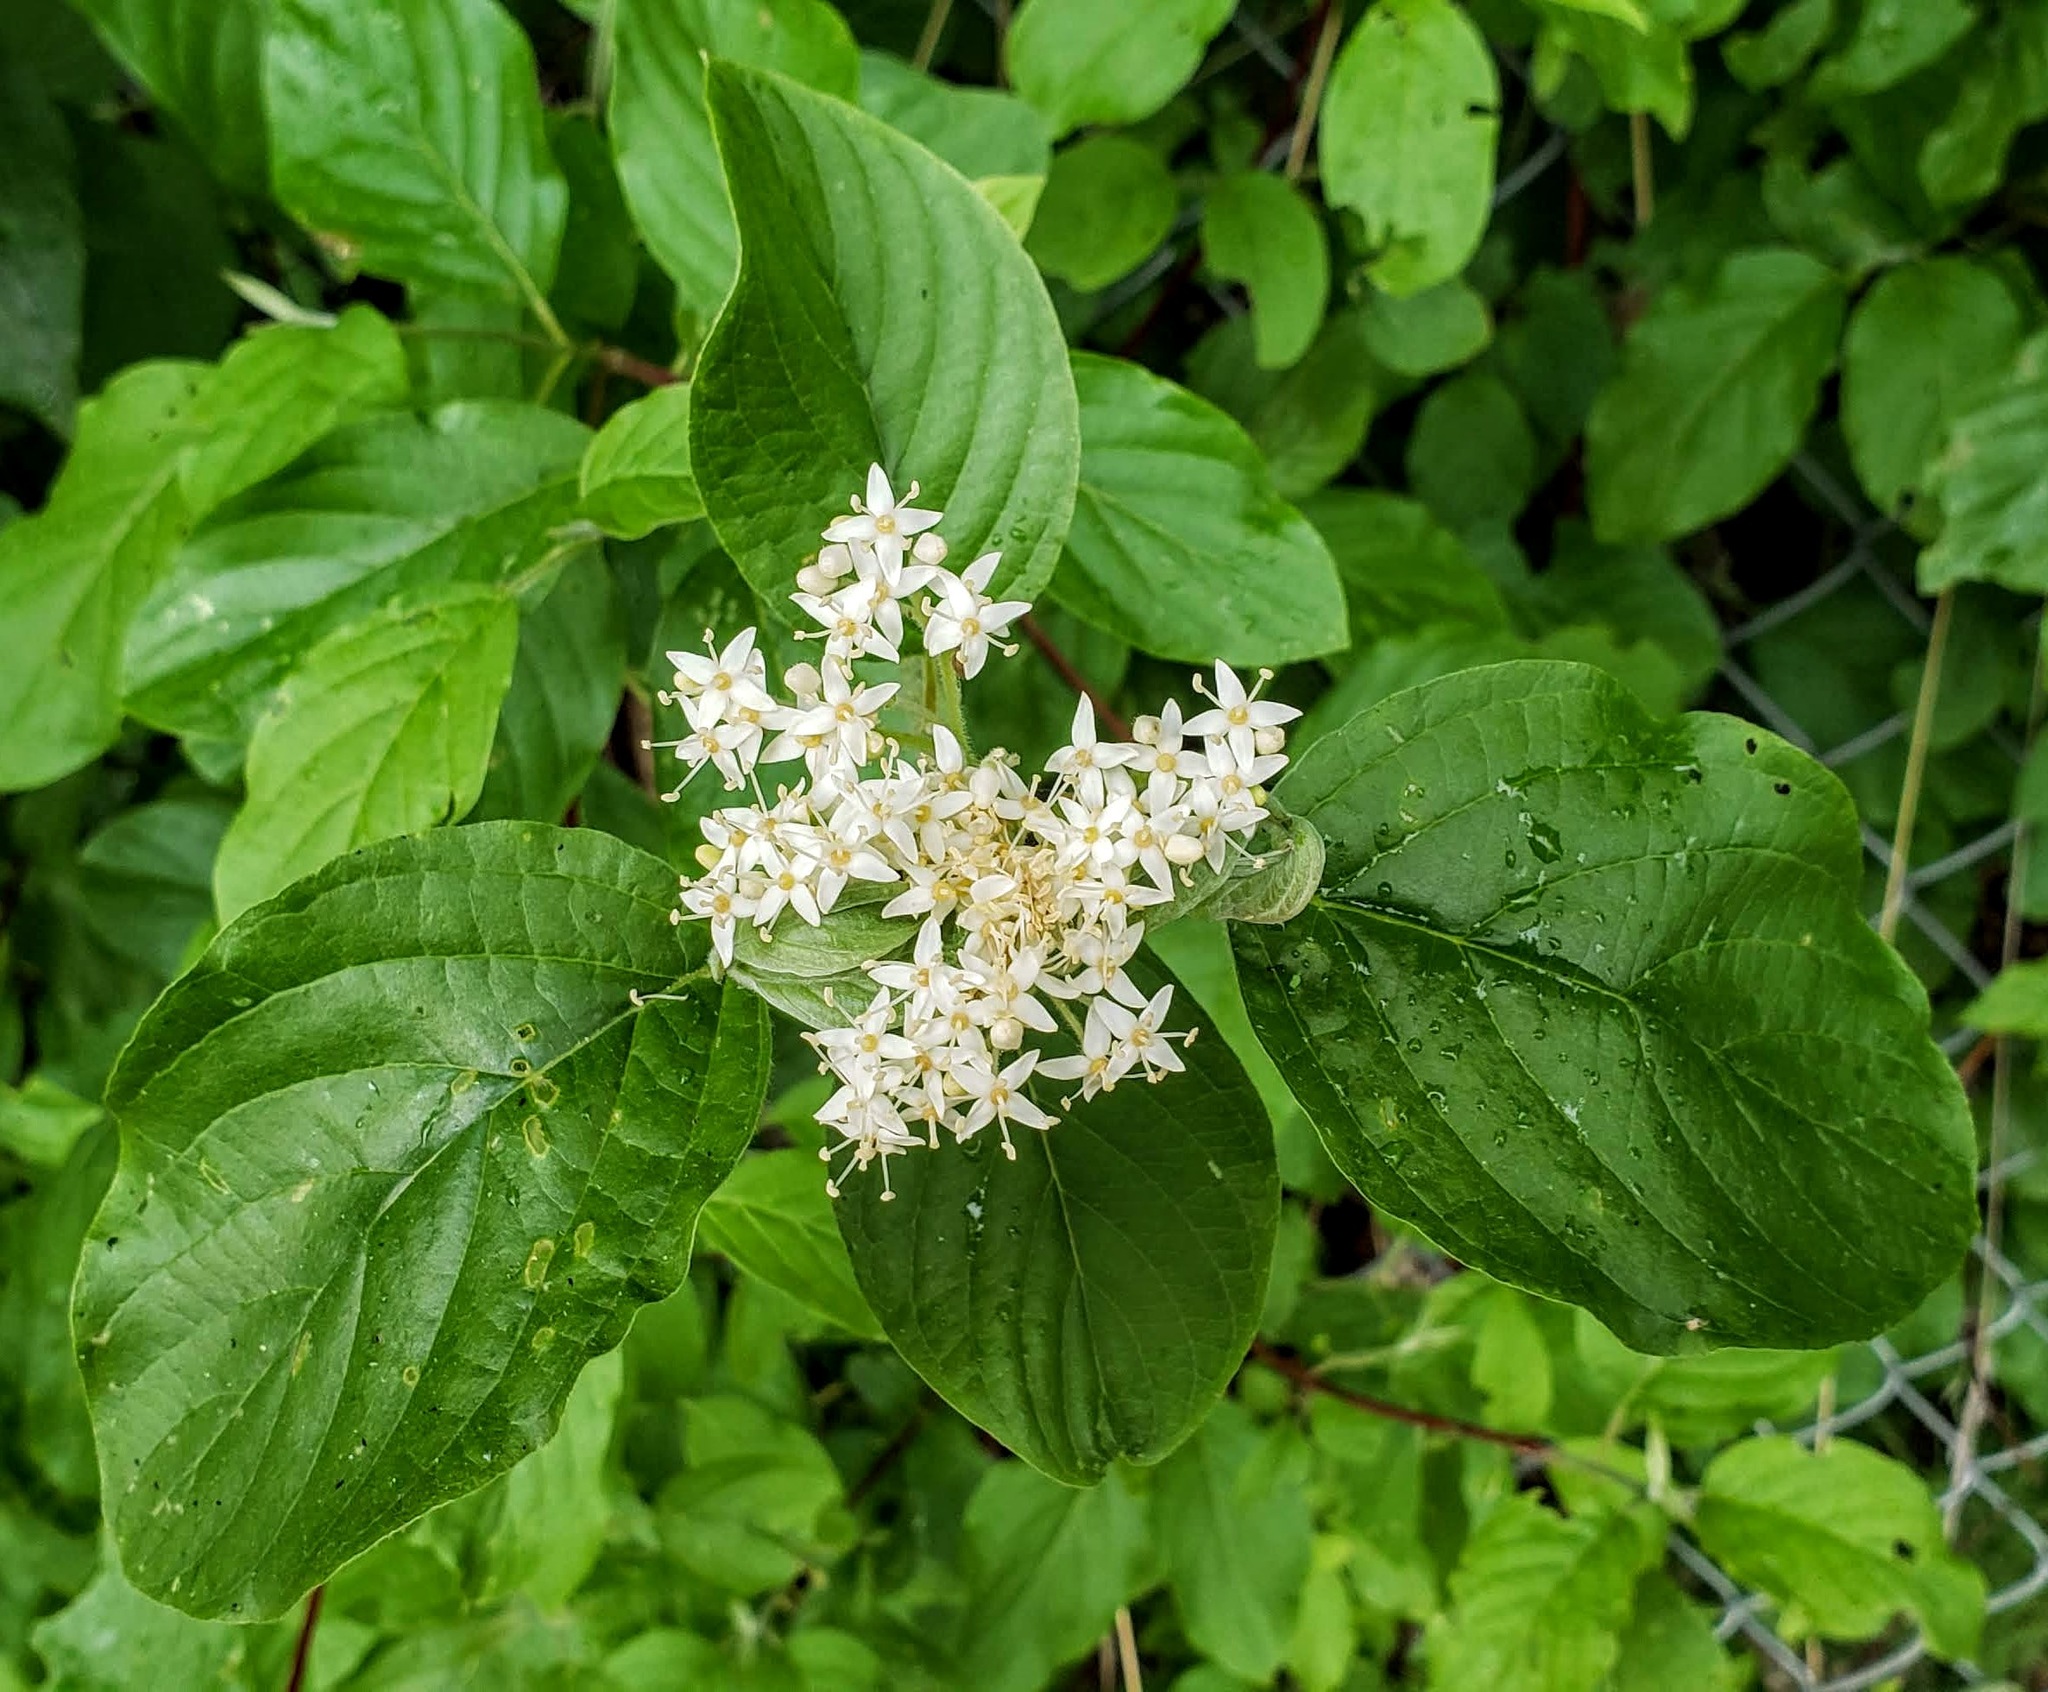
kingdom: Plantae
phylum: Tracheophyta
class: Magnoliopsida
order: Cornales
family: Cornaceae
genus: Cornus
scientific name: Cornus sericea
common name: Red-osier dogwood
